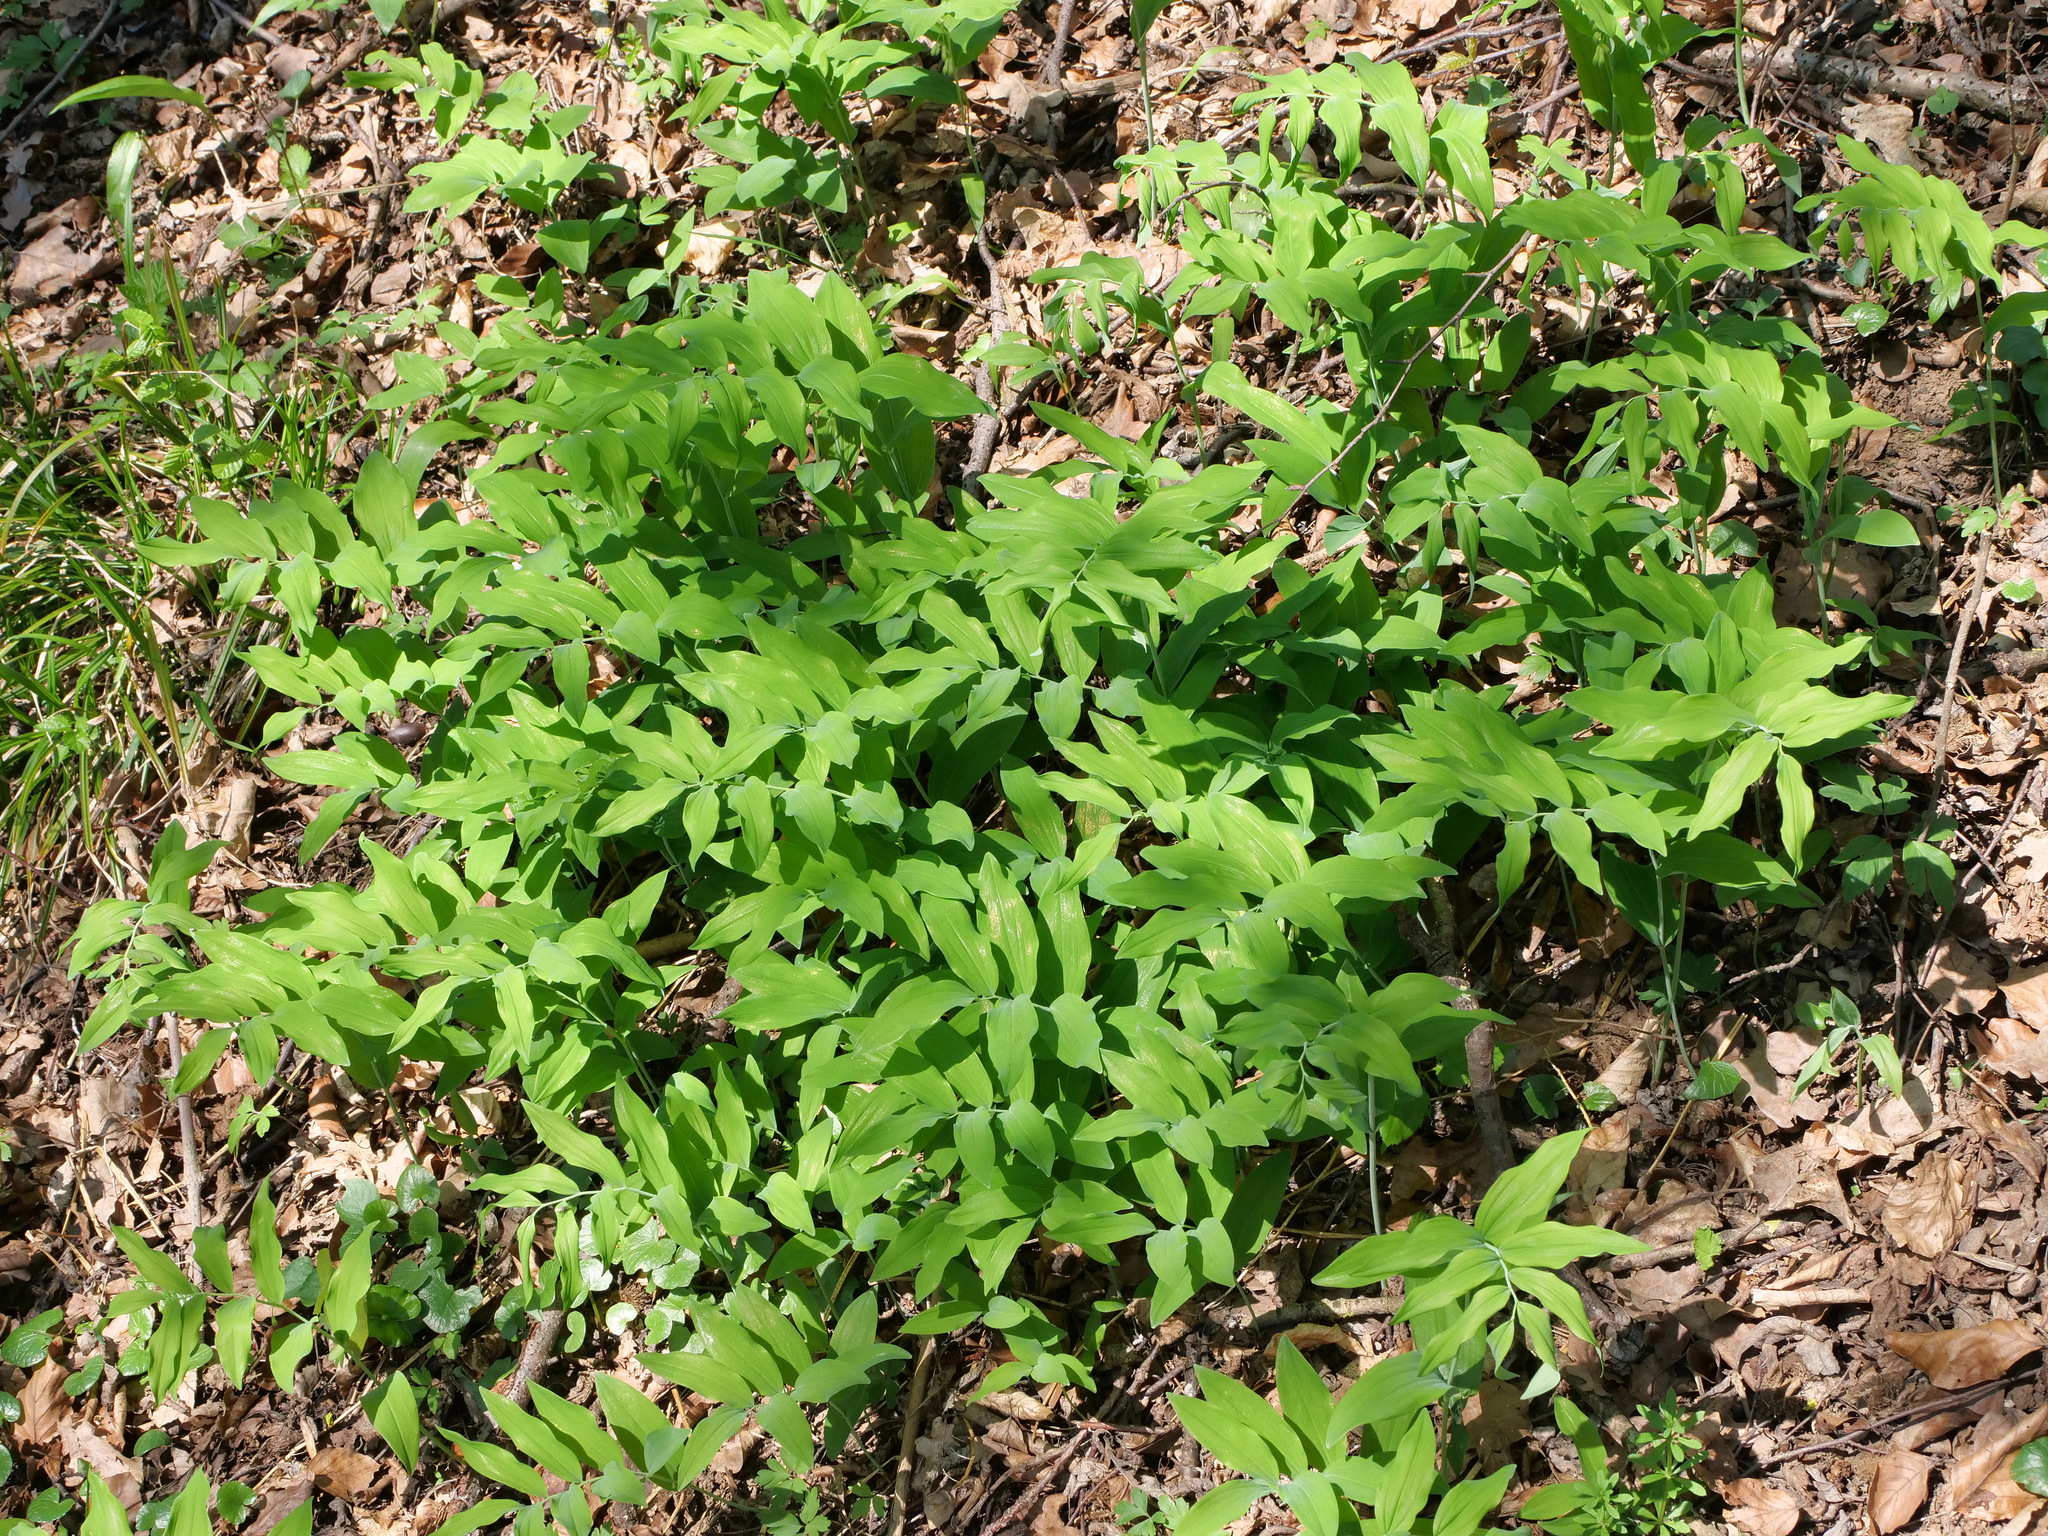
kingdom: Plantae
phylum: Tracheophyta
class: Liliopsida
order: Asparagales
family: Asparagaceae
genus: Polygonatum
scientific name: Polygonatum multiflorum
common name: Solomon's-seal
